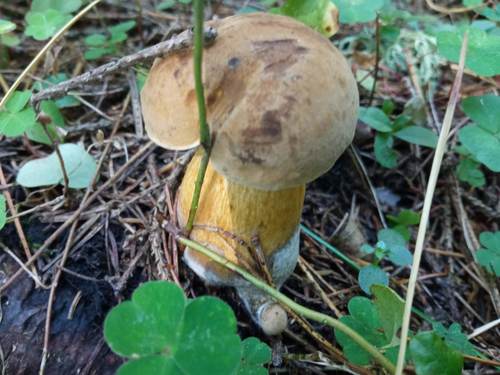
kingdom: Fungi
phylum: Basidiomycota
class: Agaricomycetes
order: Boletales
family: Boletaceae
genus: Tylopilus
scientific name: Tylopilus felleus
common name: Bitter bolete
